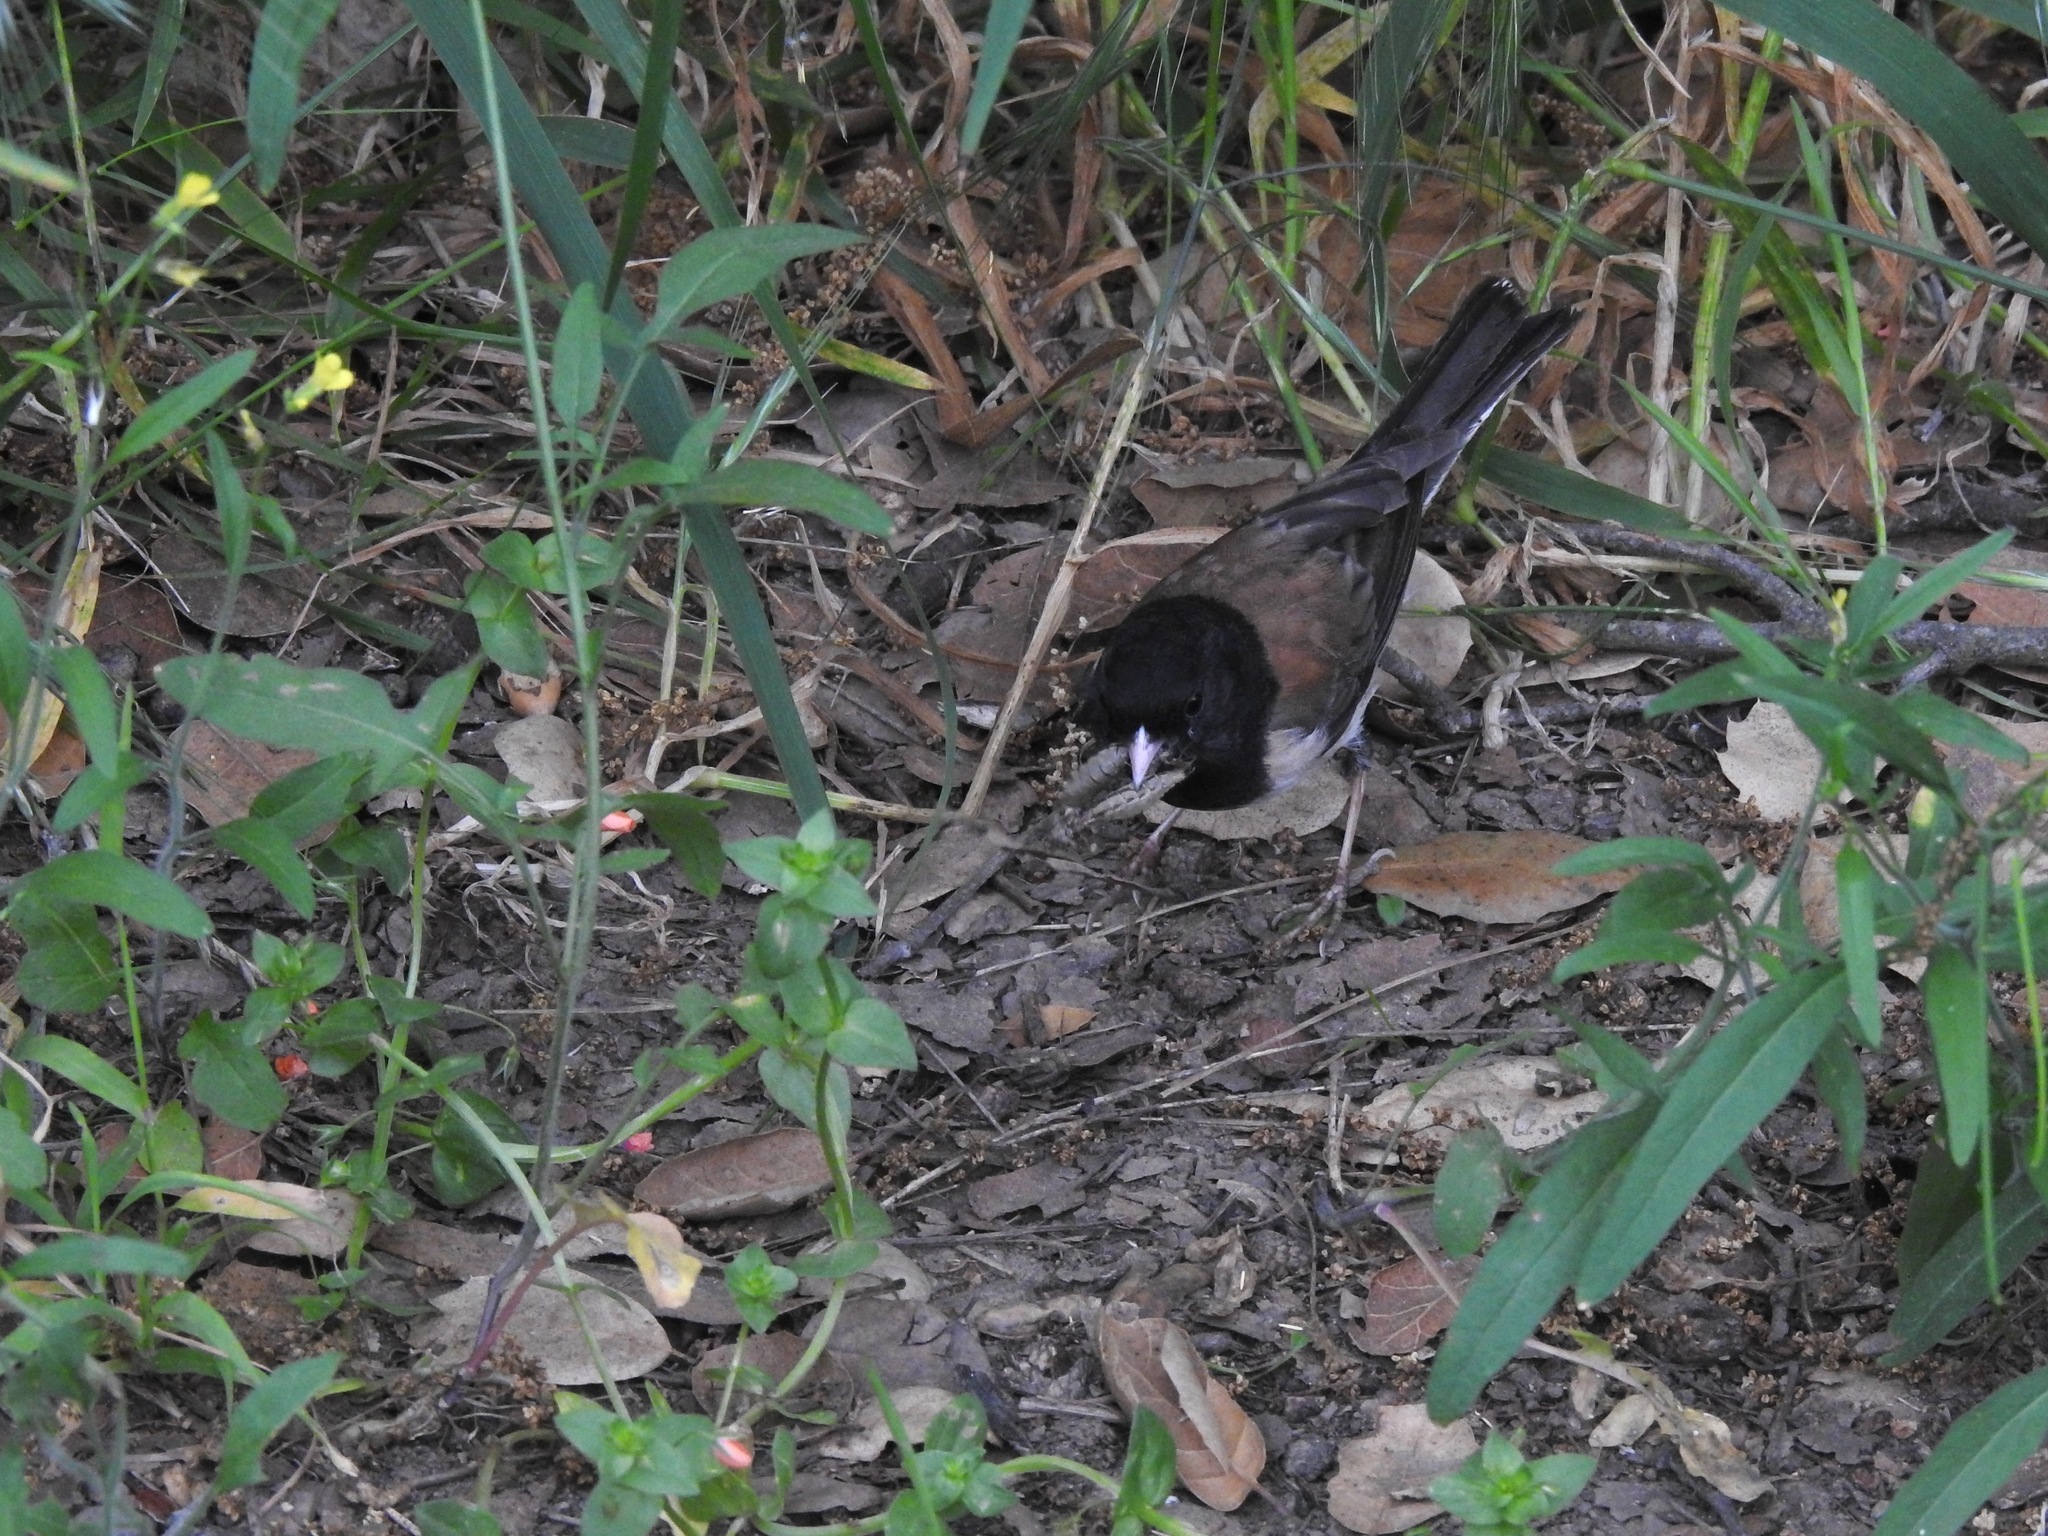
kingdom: Animalia
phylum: Chordata
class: Aves
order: Passeriformes
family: Passerellidae
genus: Junco
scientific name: Junco hyemalis
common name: Dark-eyed junco
